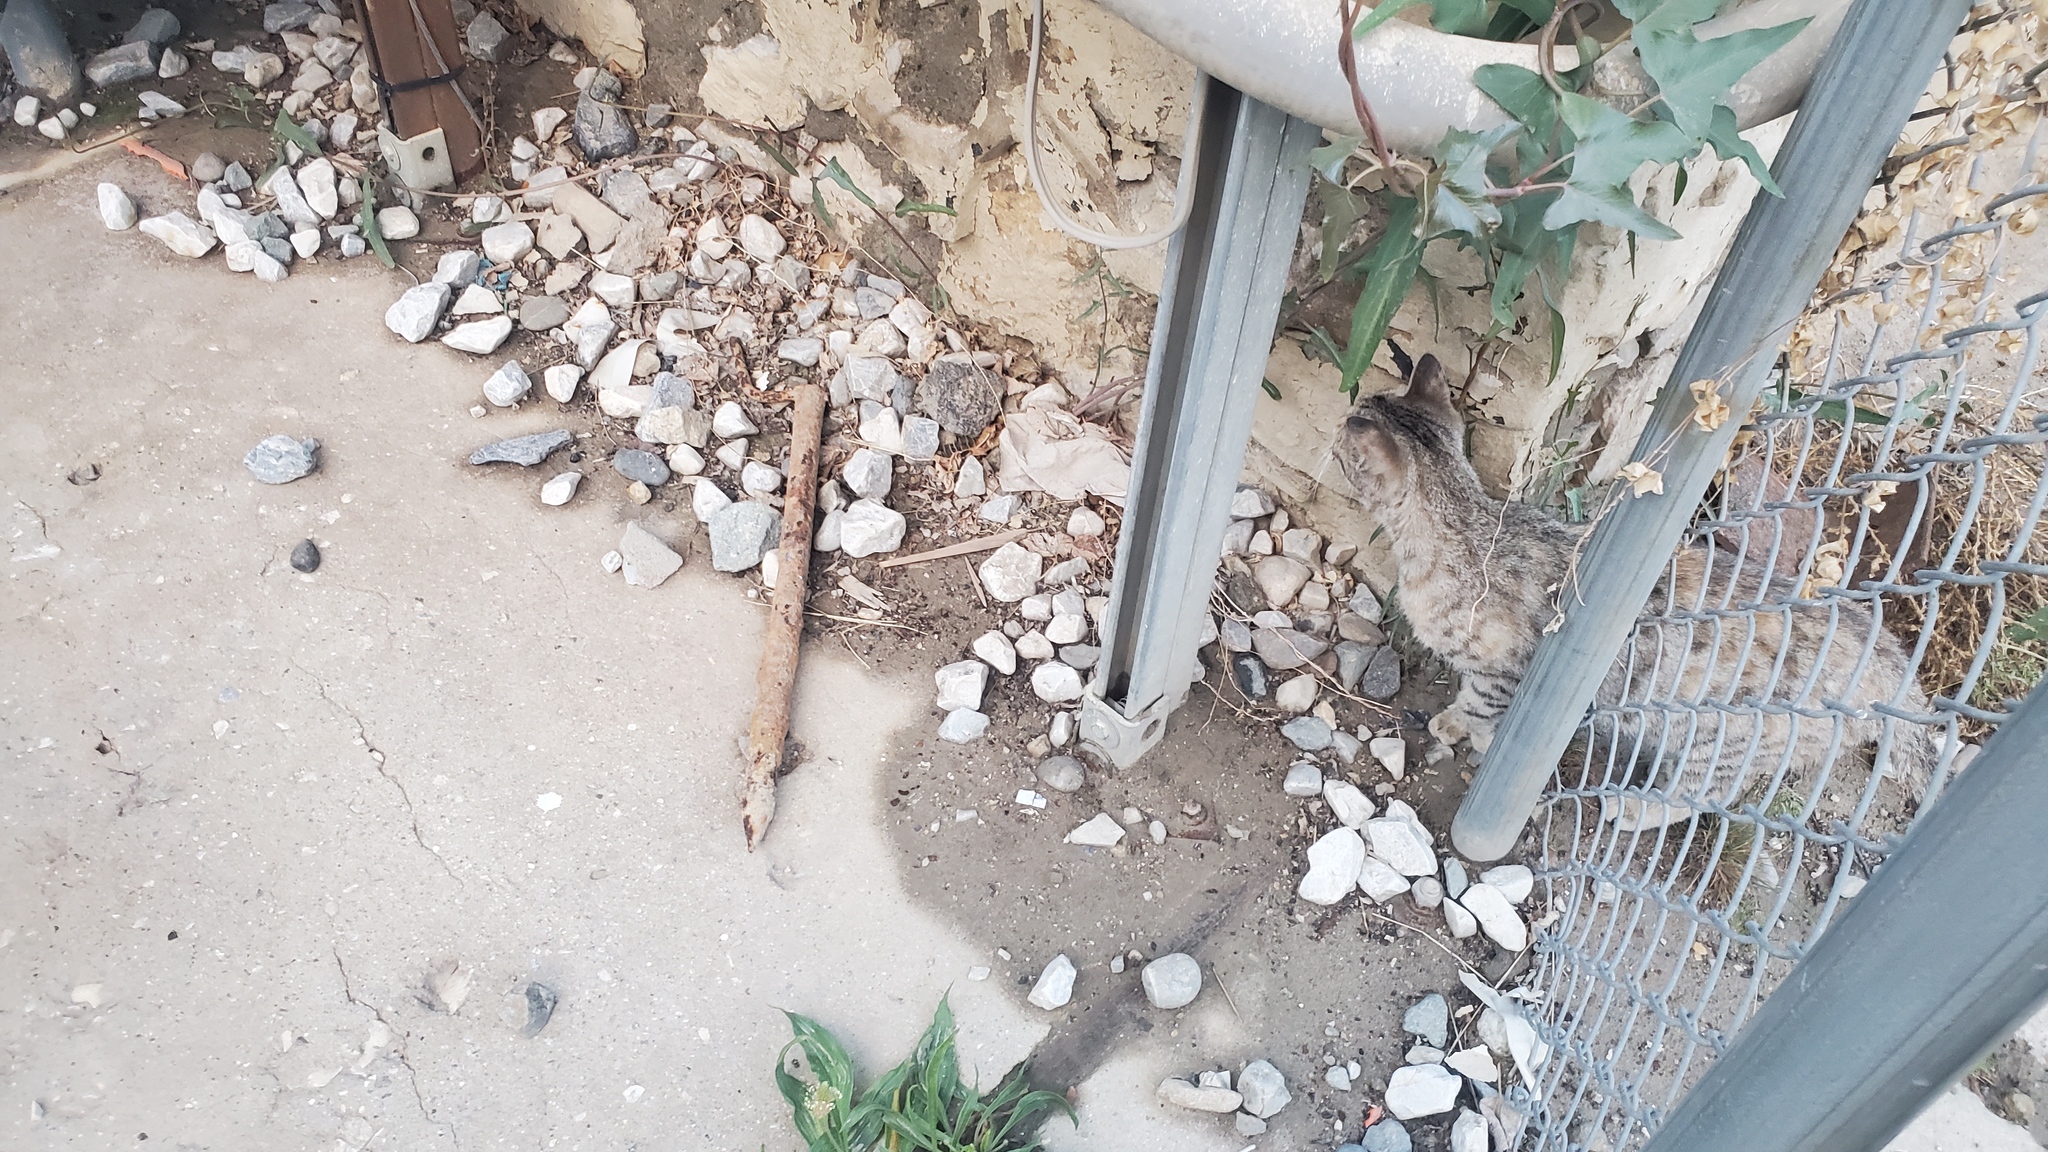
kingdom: Animalia
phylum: Chordata
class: Mammalia
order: Carnivora
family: Felidae
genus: Felis
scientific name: Felis catus
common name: Domestic cat
